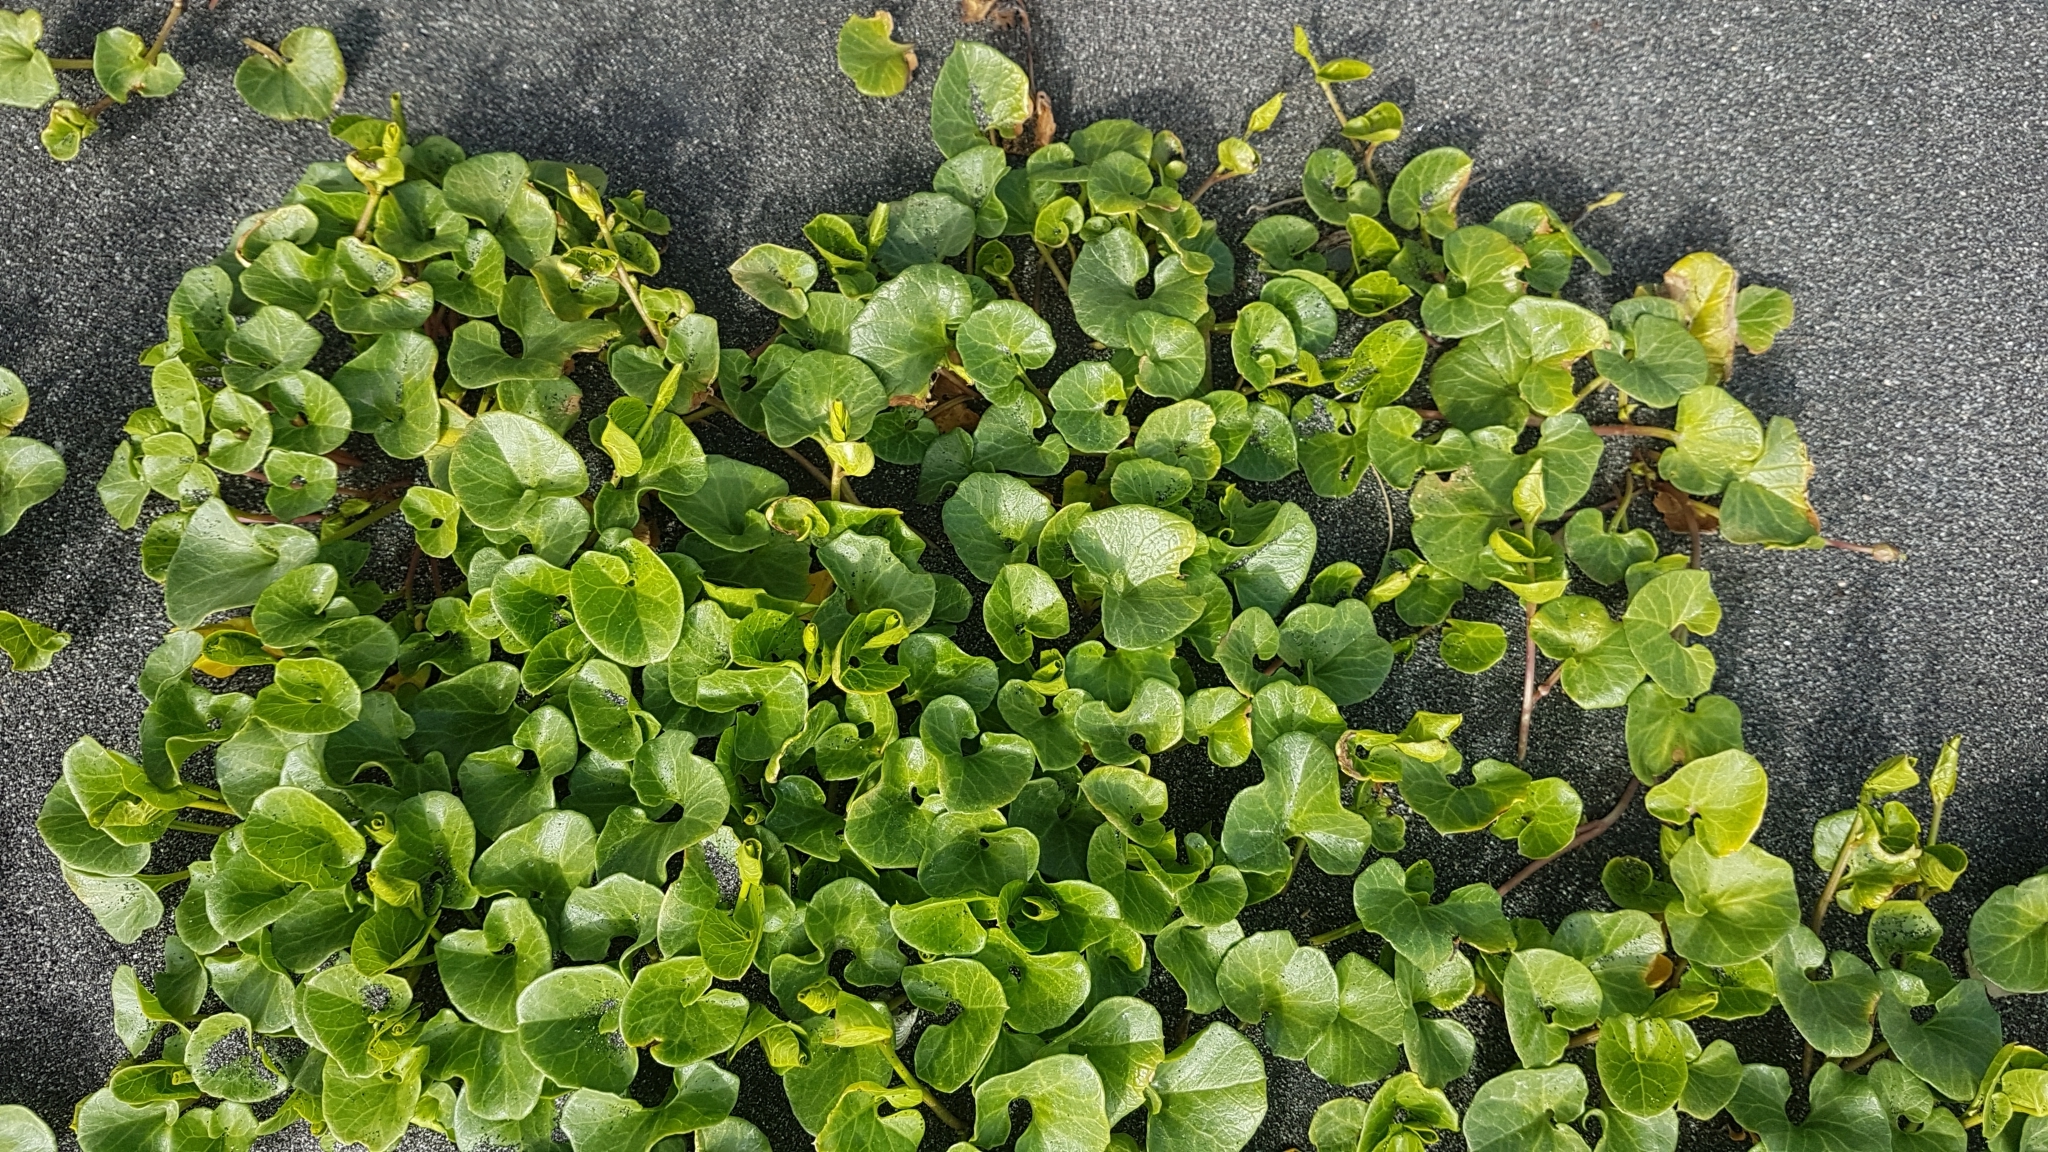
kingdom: Plantae
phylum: Tracheophyta
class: Magnoliopsida
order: Solanales
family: Convolvulaceae
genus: Calystegia
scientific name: Calystegia soldanella
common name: Sea bindweed
